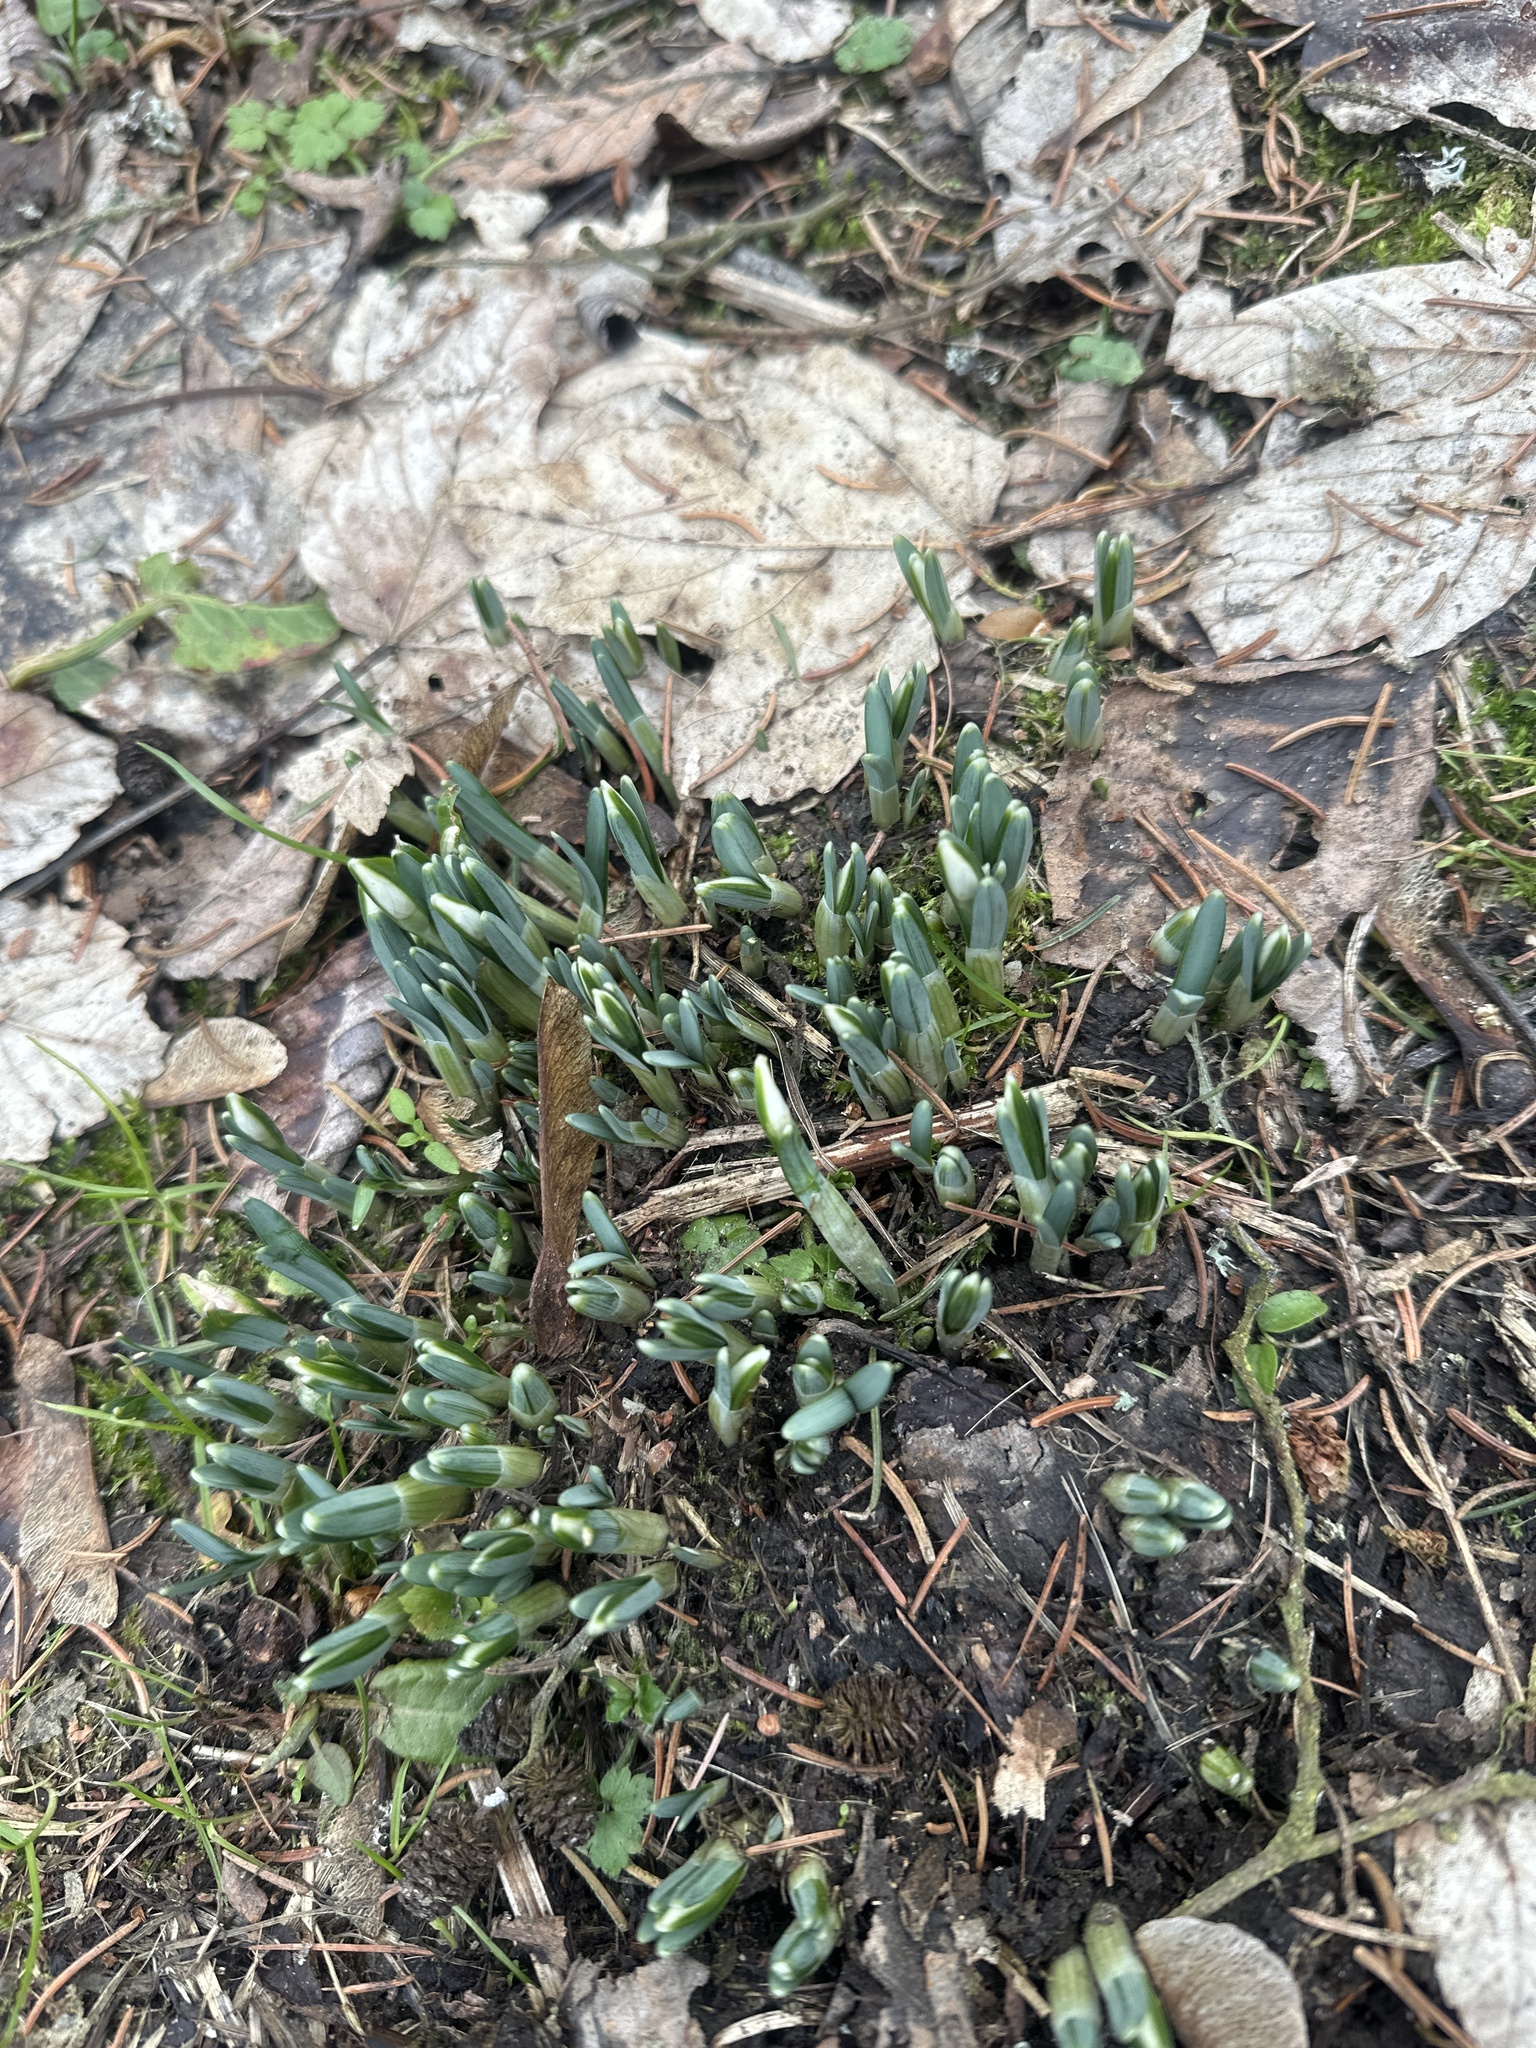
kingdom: Plantae
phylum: Tracheophyta
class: Liliopsida
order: Asparagales
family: Amaryllidaceae
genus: Galanthus
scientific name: Galanthus nivalis
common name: Snowdrop
